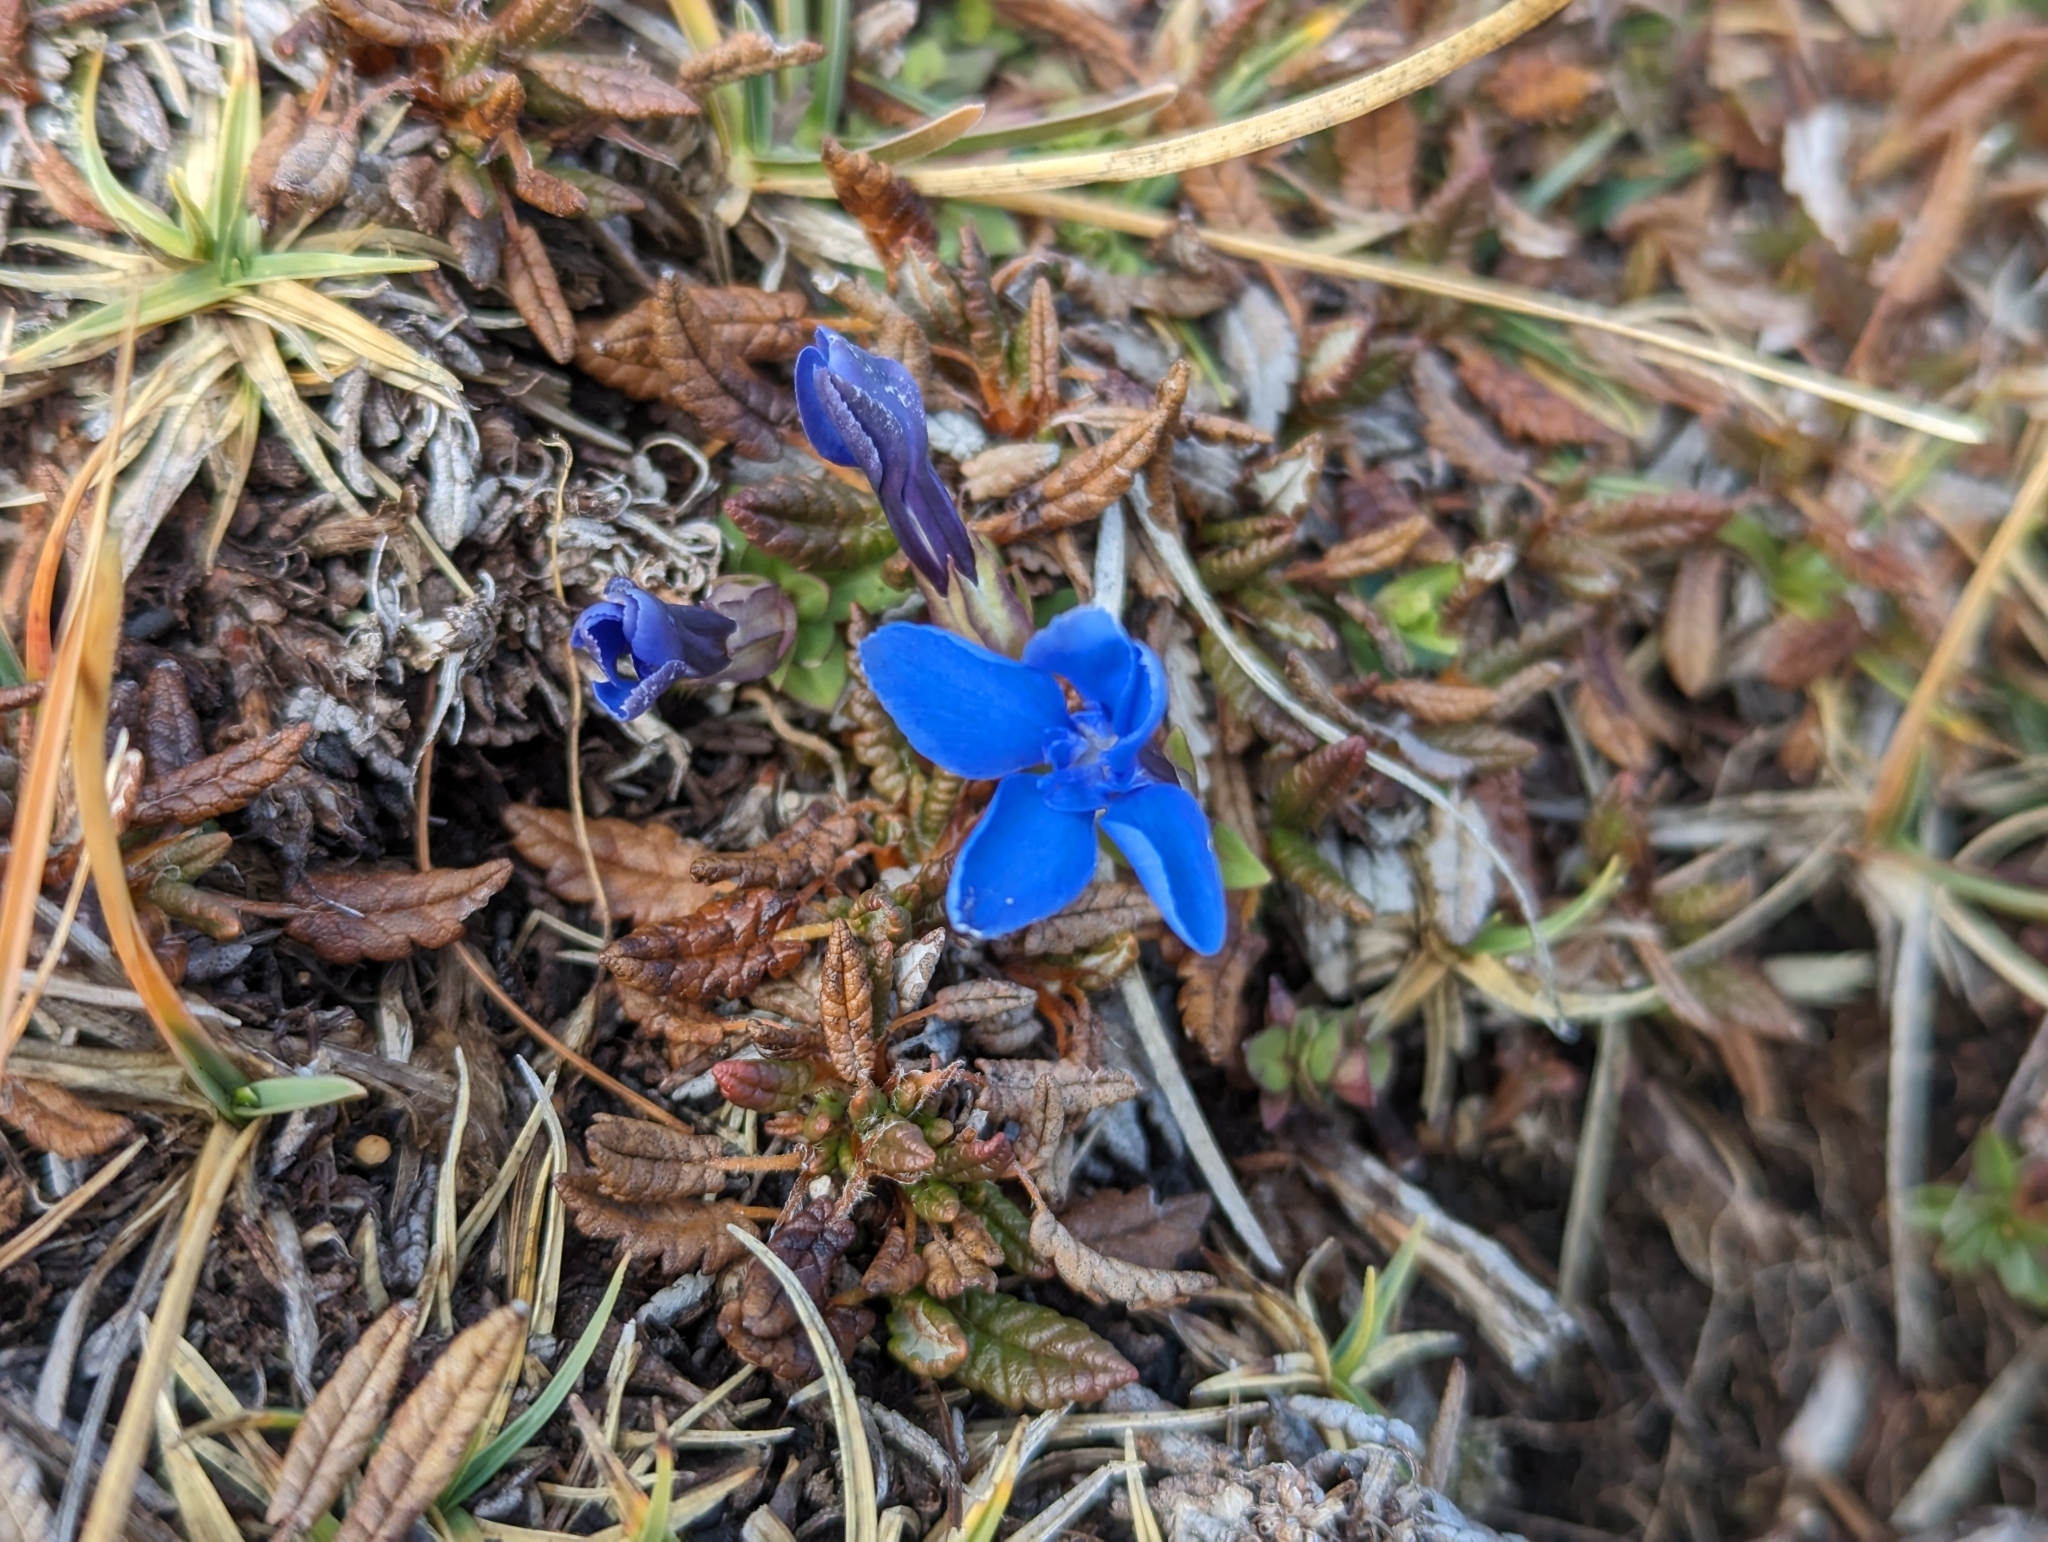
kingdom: Plantae
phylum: Tracheophyta
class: Magnoliopsida
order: Gentianales
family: Gentianaceae
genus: Gentiana
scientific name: Gentiana verna
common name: Spring gentian
